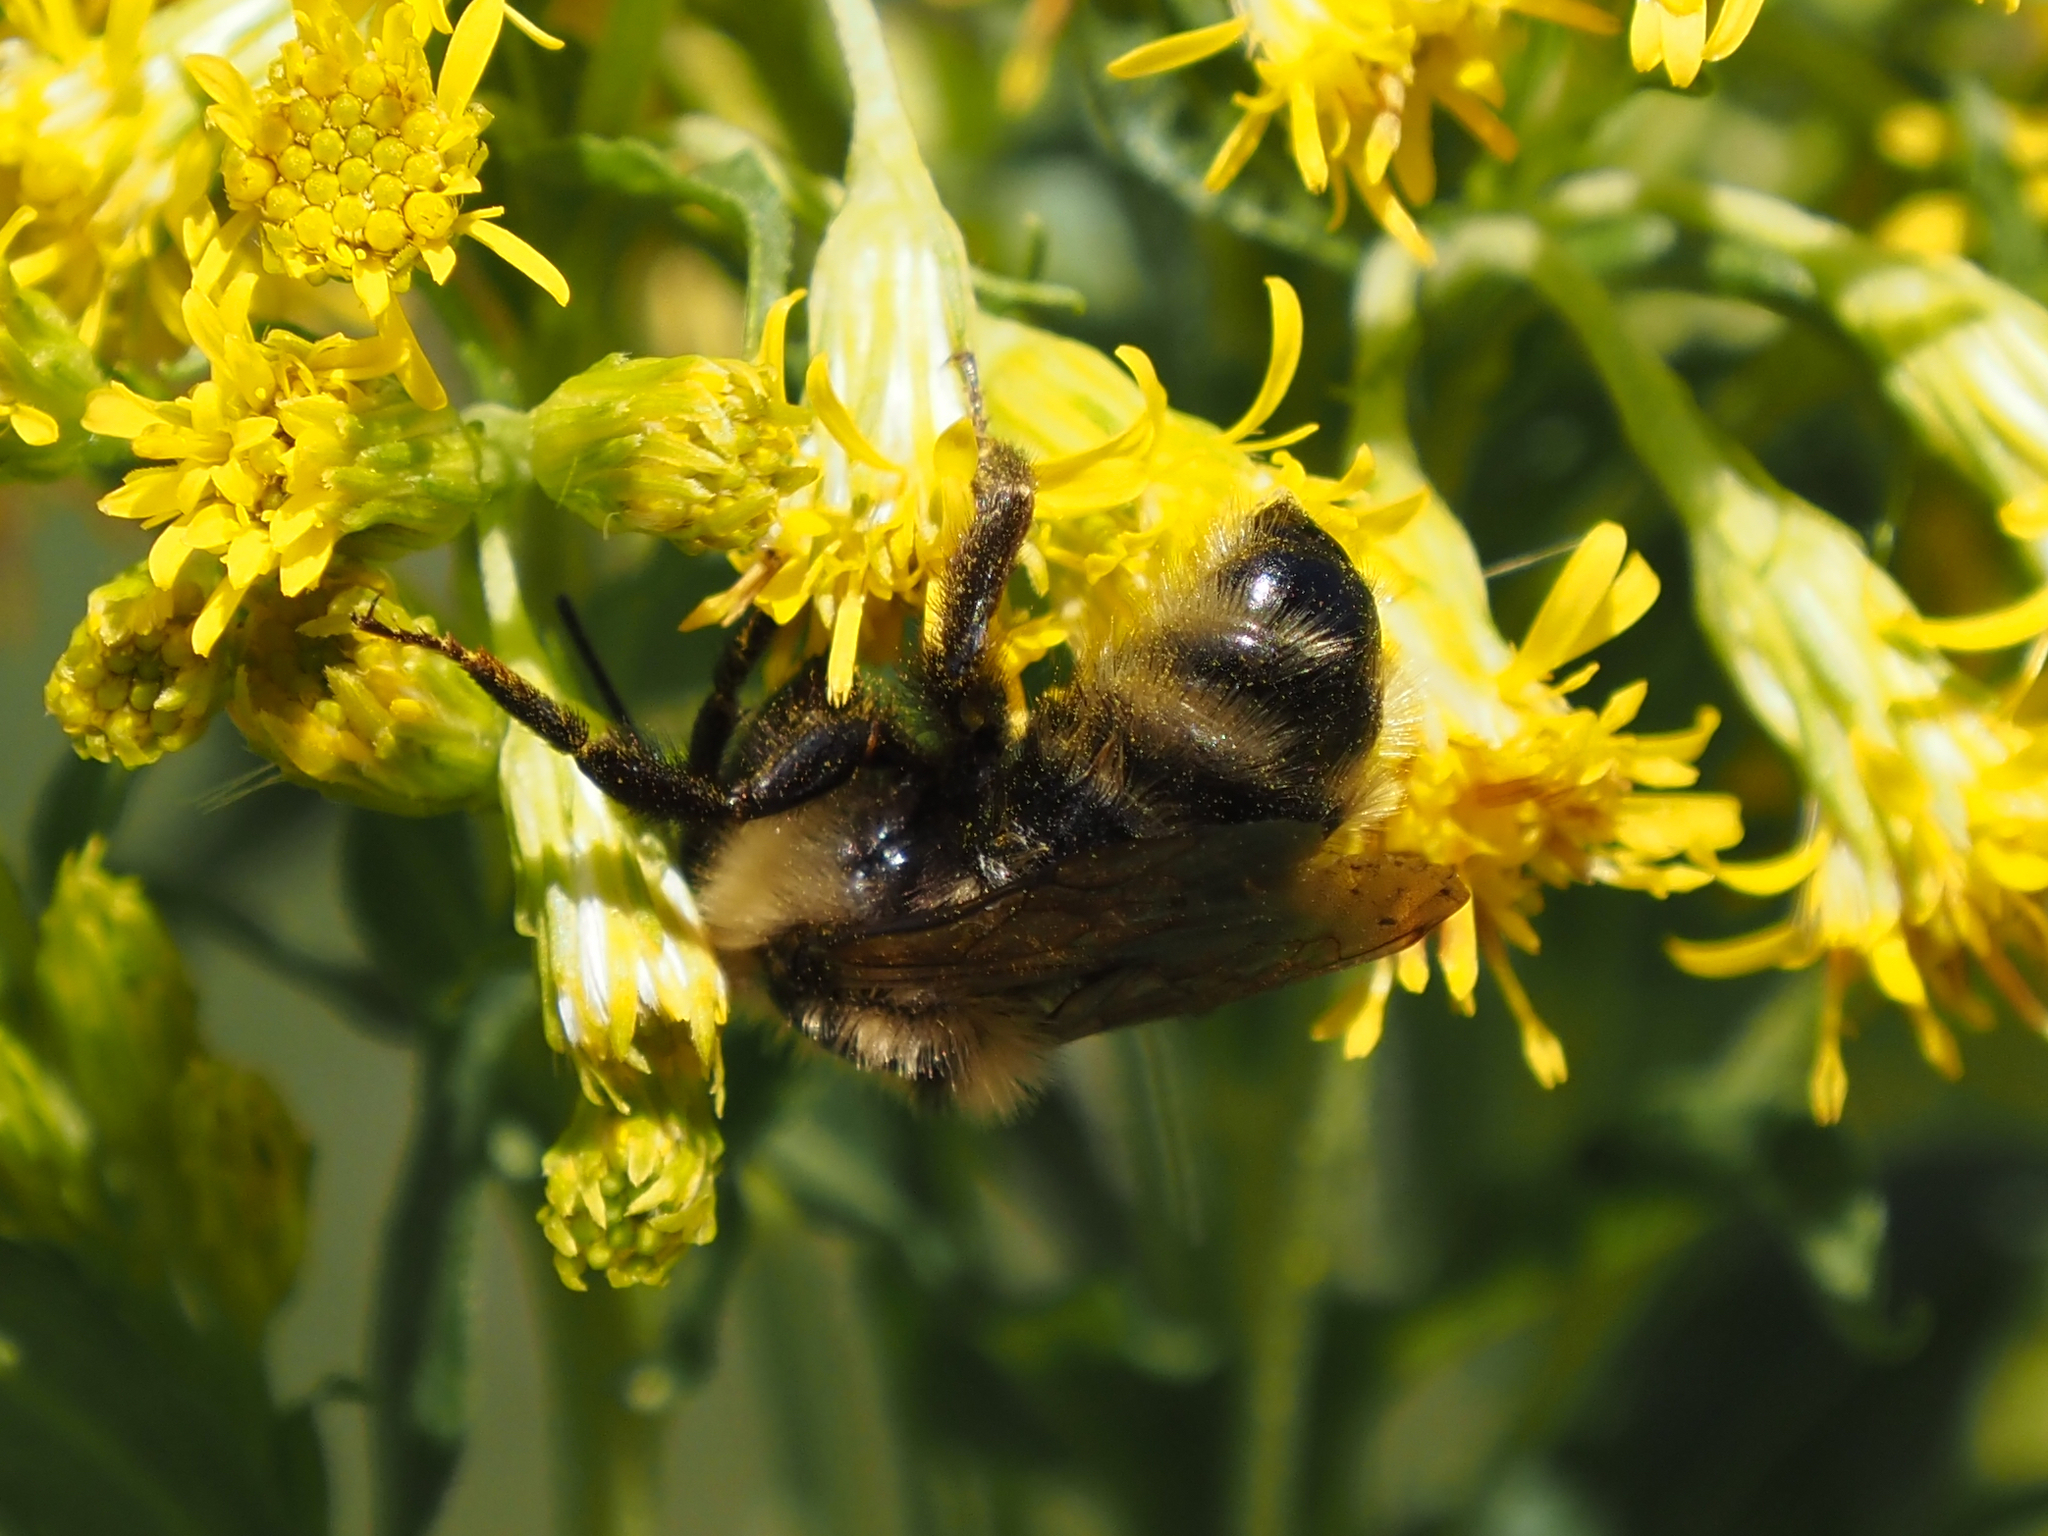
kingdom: Animalia
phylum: Arthropoda
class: Insecta
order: Hymenoptera
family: Apidae
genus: Bombus
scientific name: Bombus insularis
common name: Indiscriminate cuckoo bumble bee
